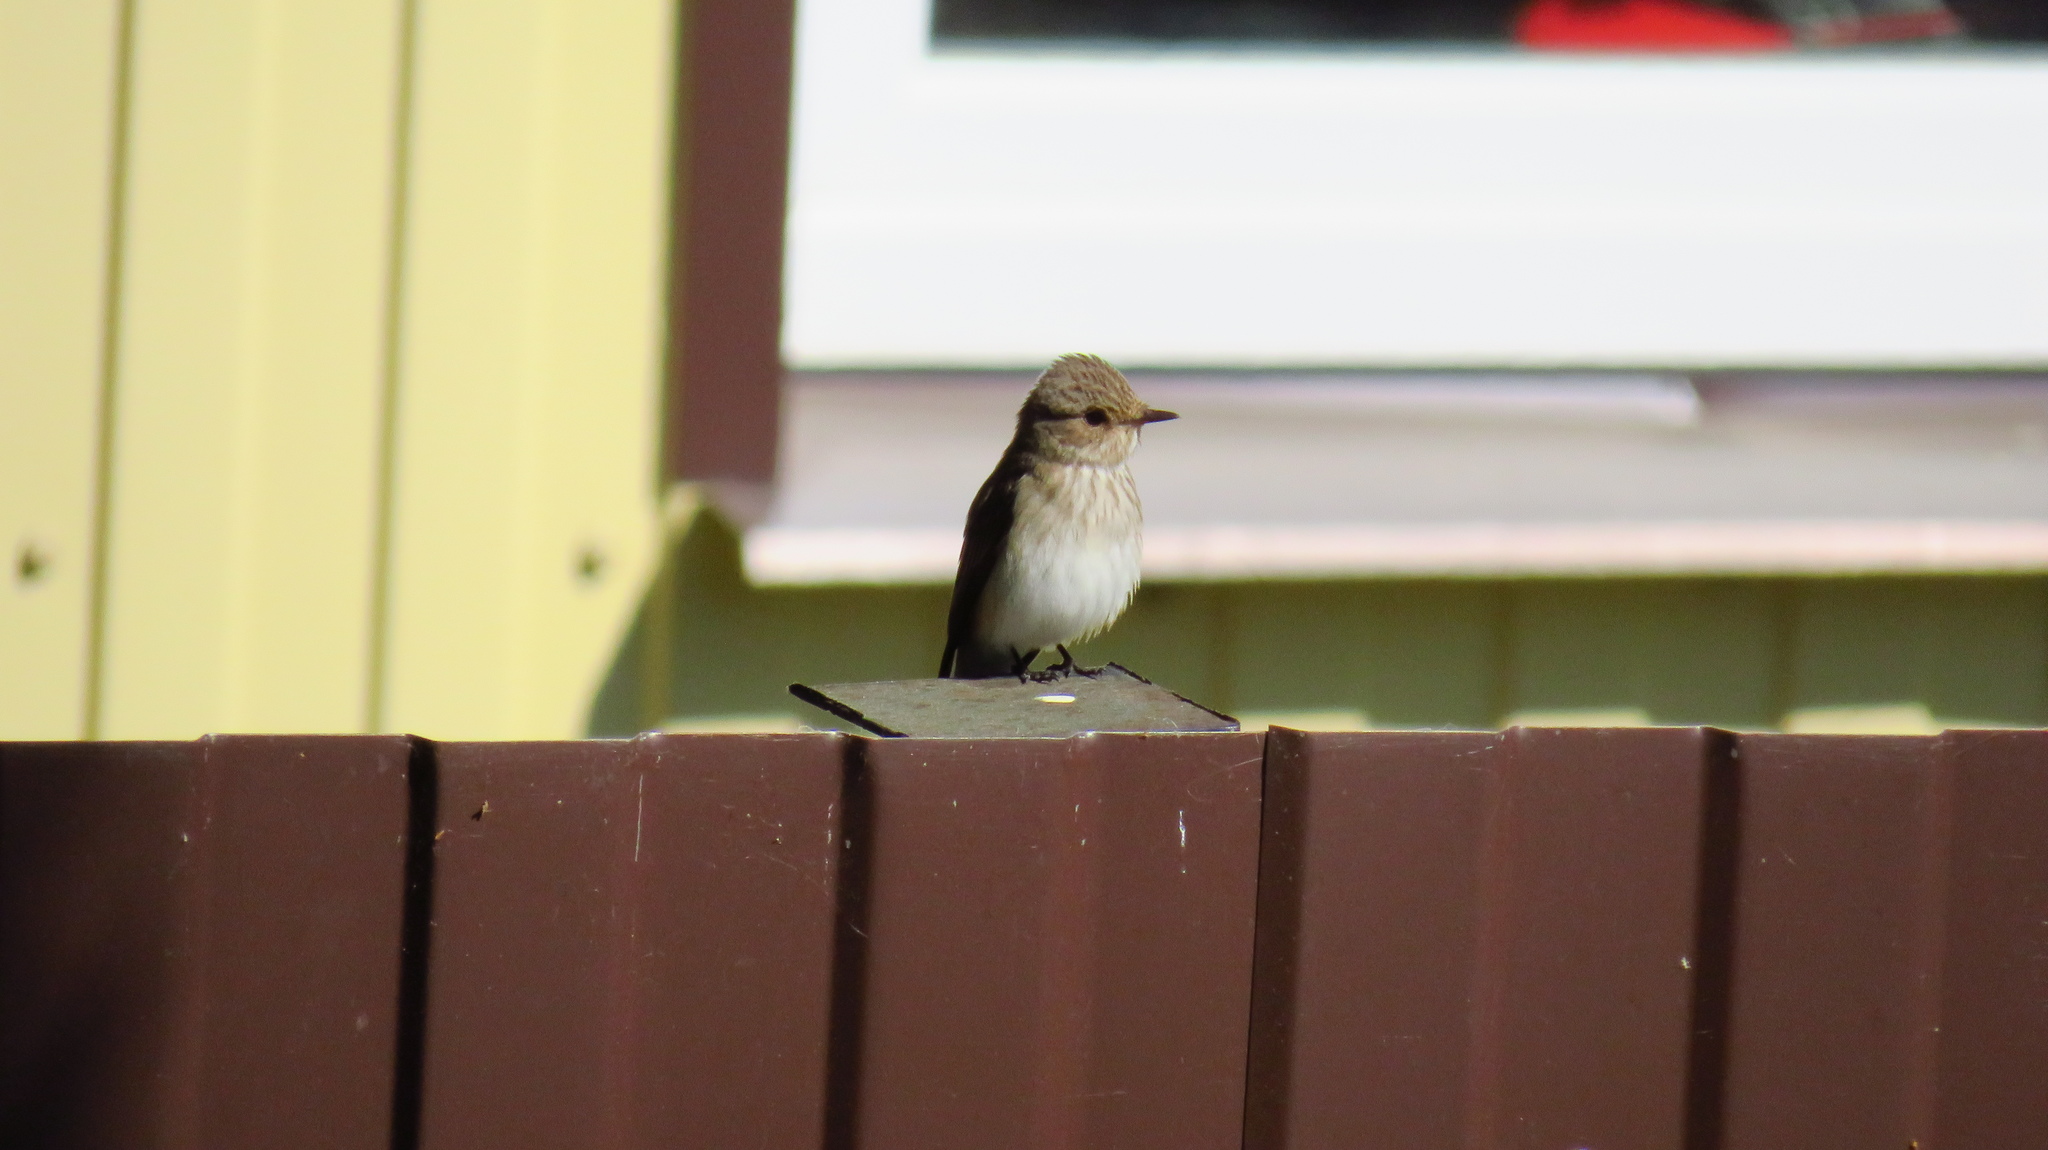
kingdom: Animalia
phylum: Chordata
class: Aves
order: Passeriformes
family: Muscicapidae
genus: Muscicapa
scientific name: Muscicapa striata
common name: Spotted flycatcher
